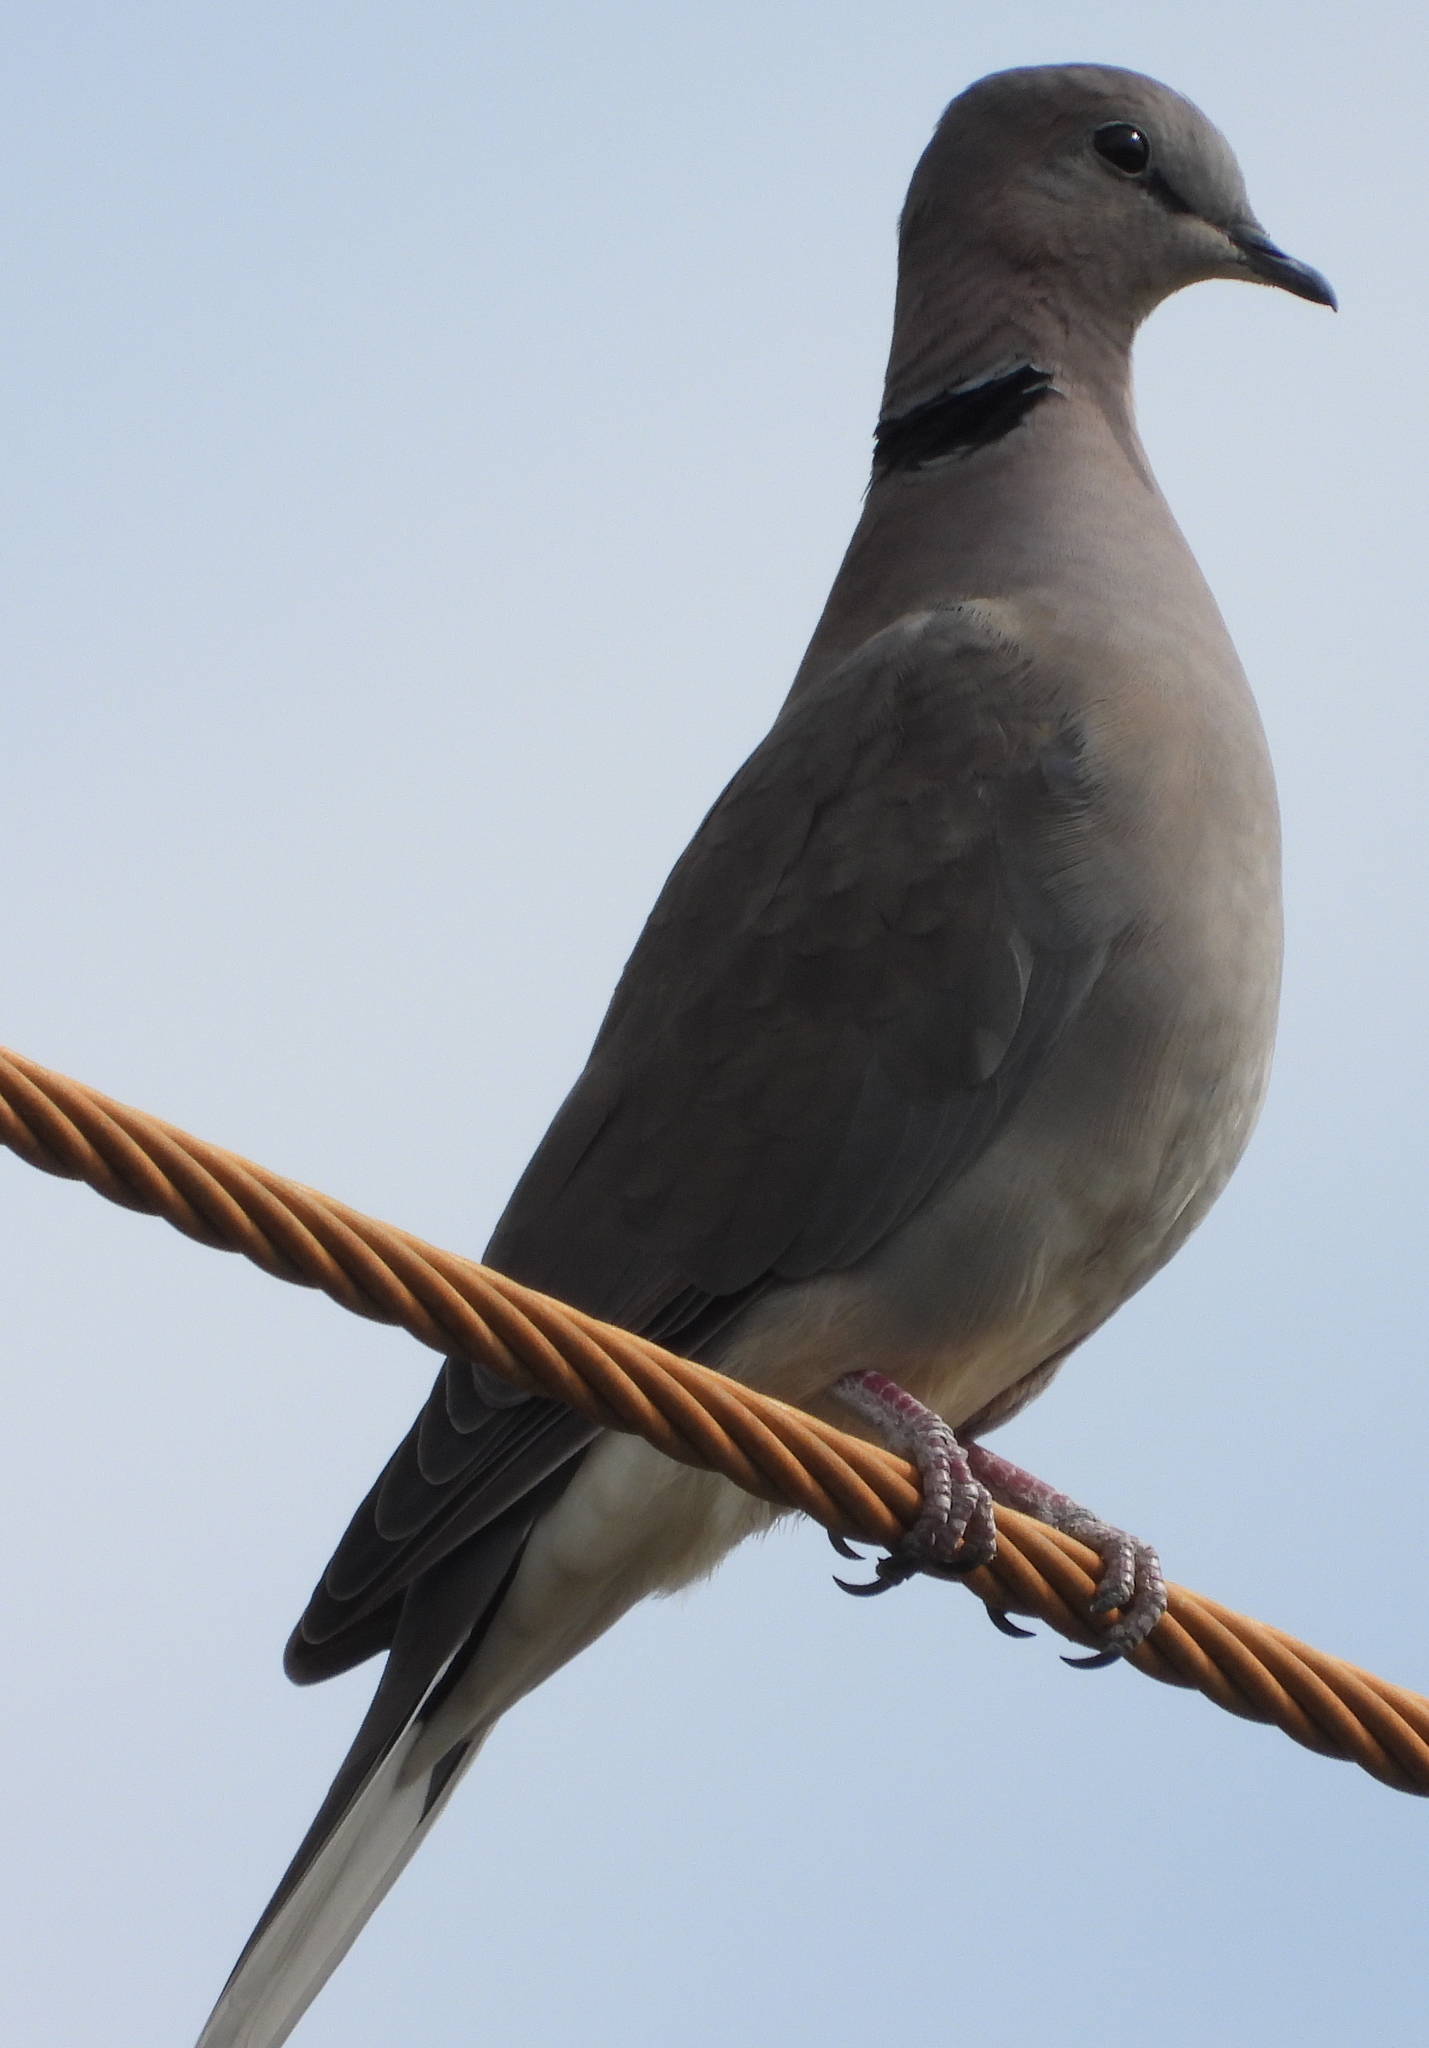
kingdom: Animalia
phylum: Chordata
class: Aves
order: Columbiformes
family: Columbidae
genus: Streptopelia
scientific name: Streptopelia capicola
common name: Ring-necked dove
